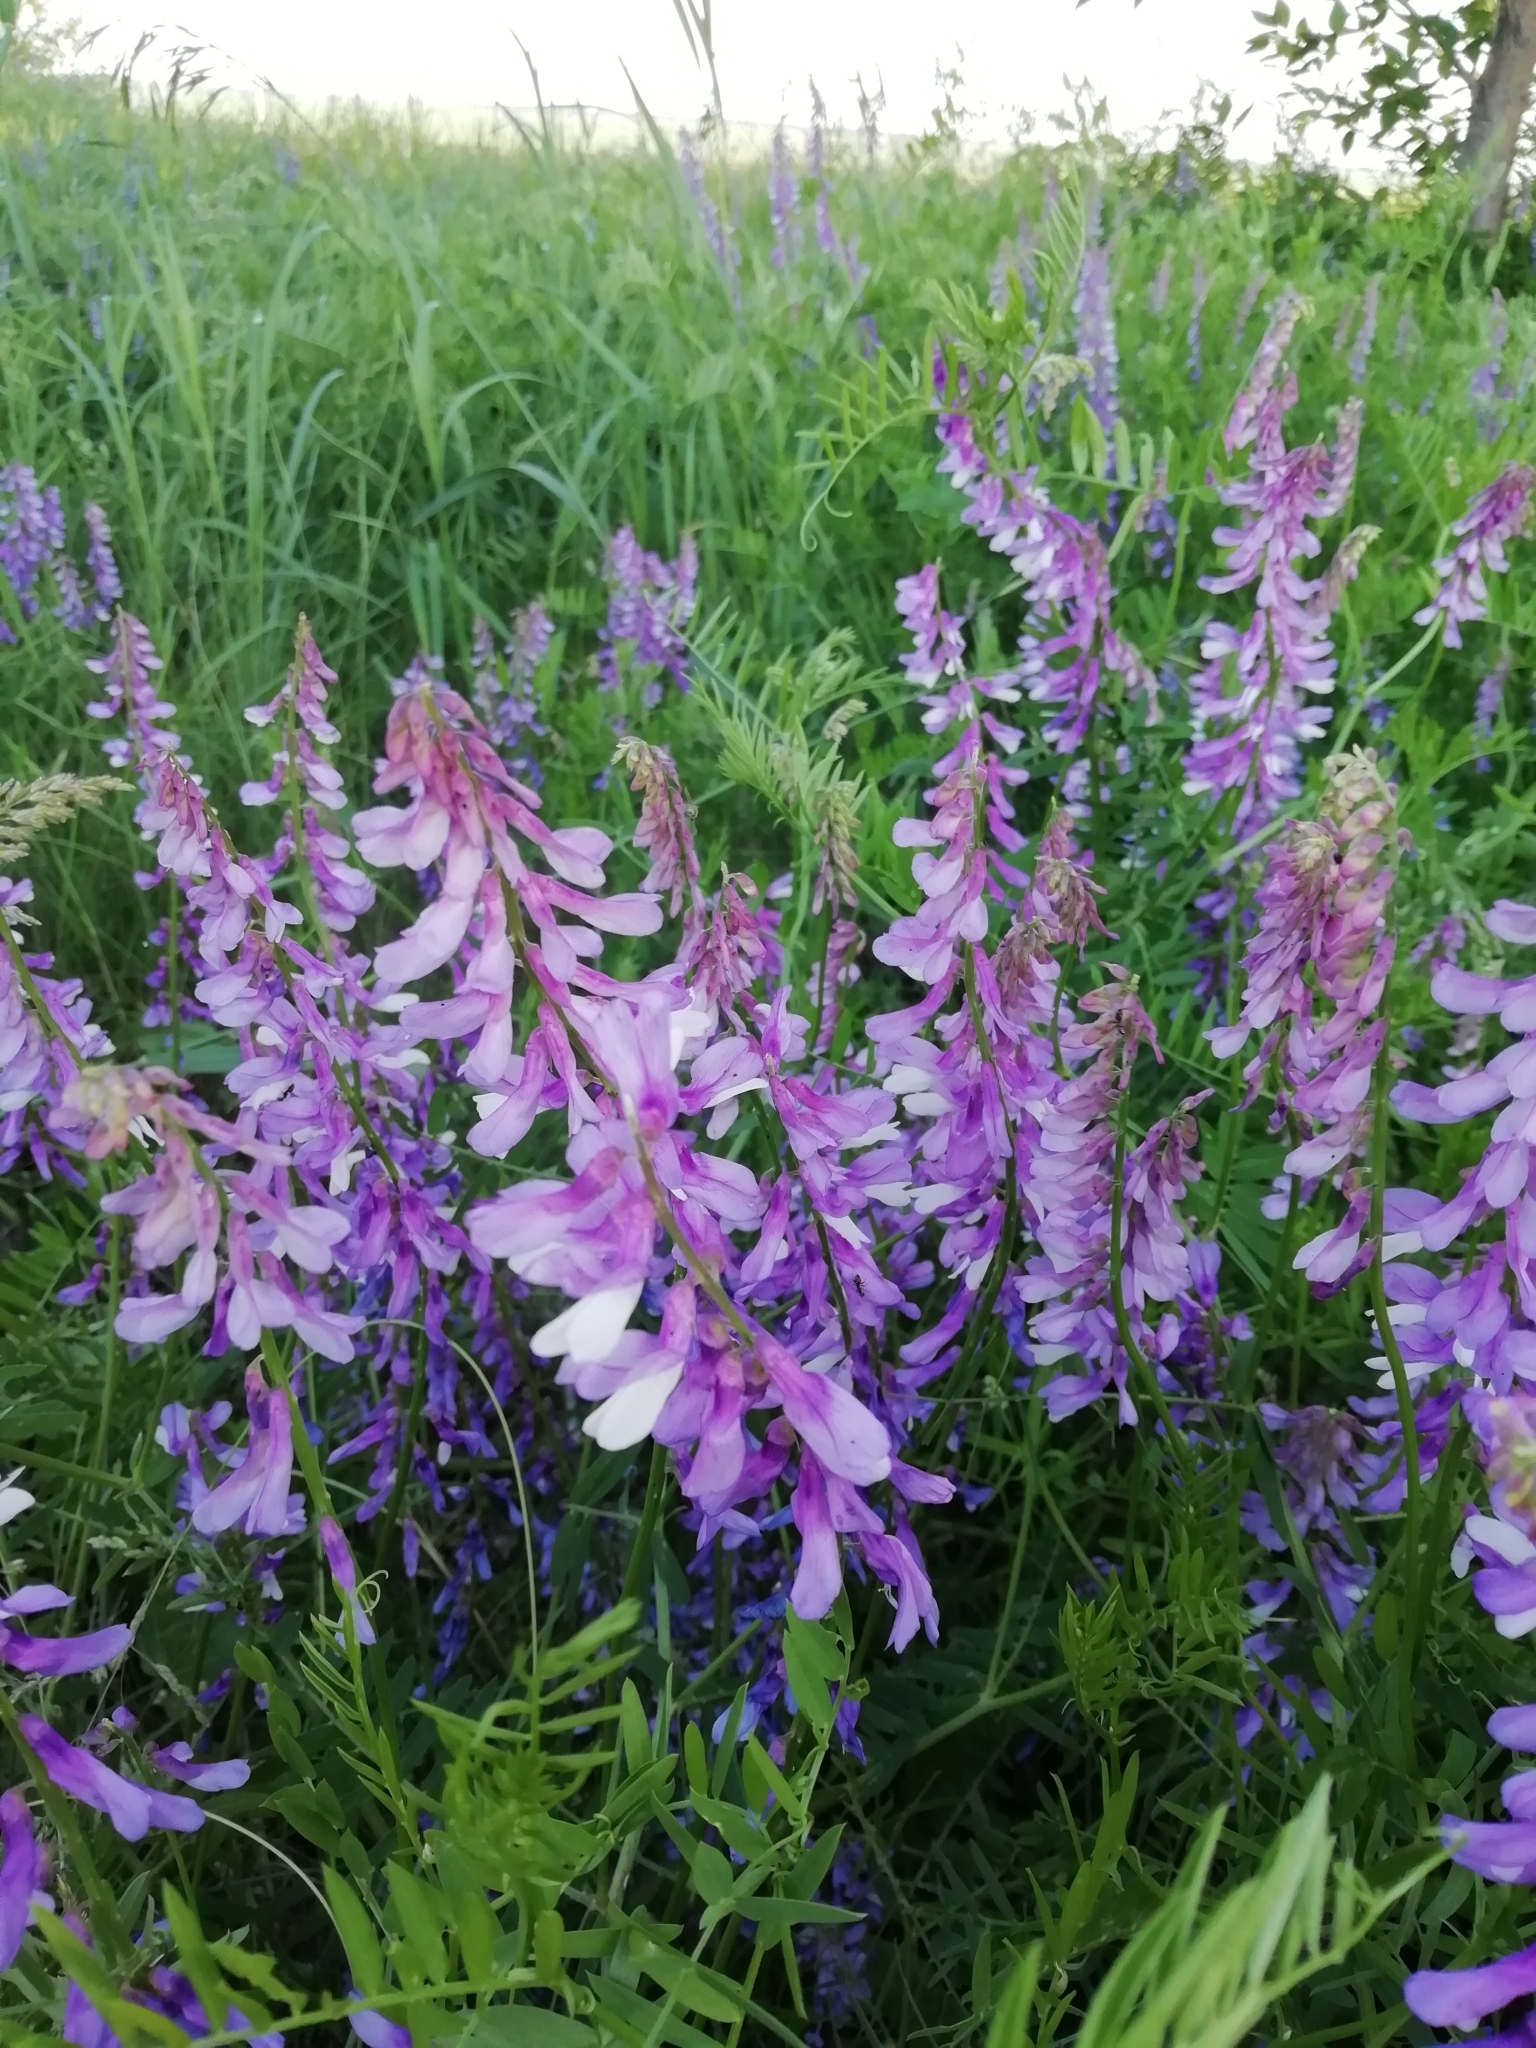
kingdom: Plantae
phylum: Tracheophyta
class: Magnoliopsida
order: Fabales
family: Fabaceae
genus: Vicia
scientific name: Vicia tenuifolia
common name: Fine-leaved vetch
